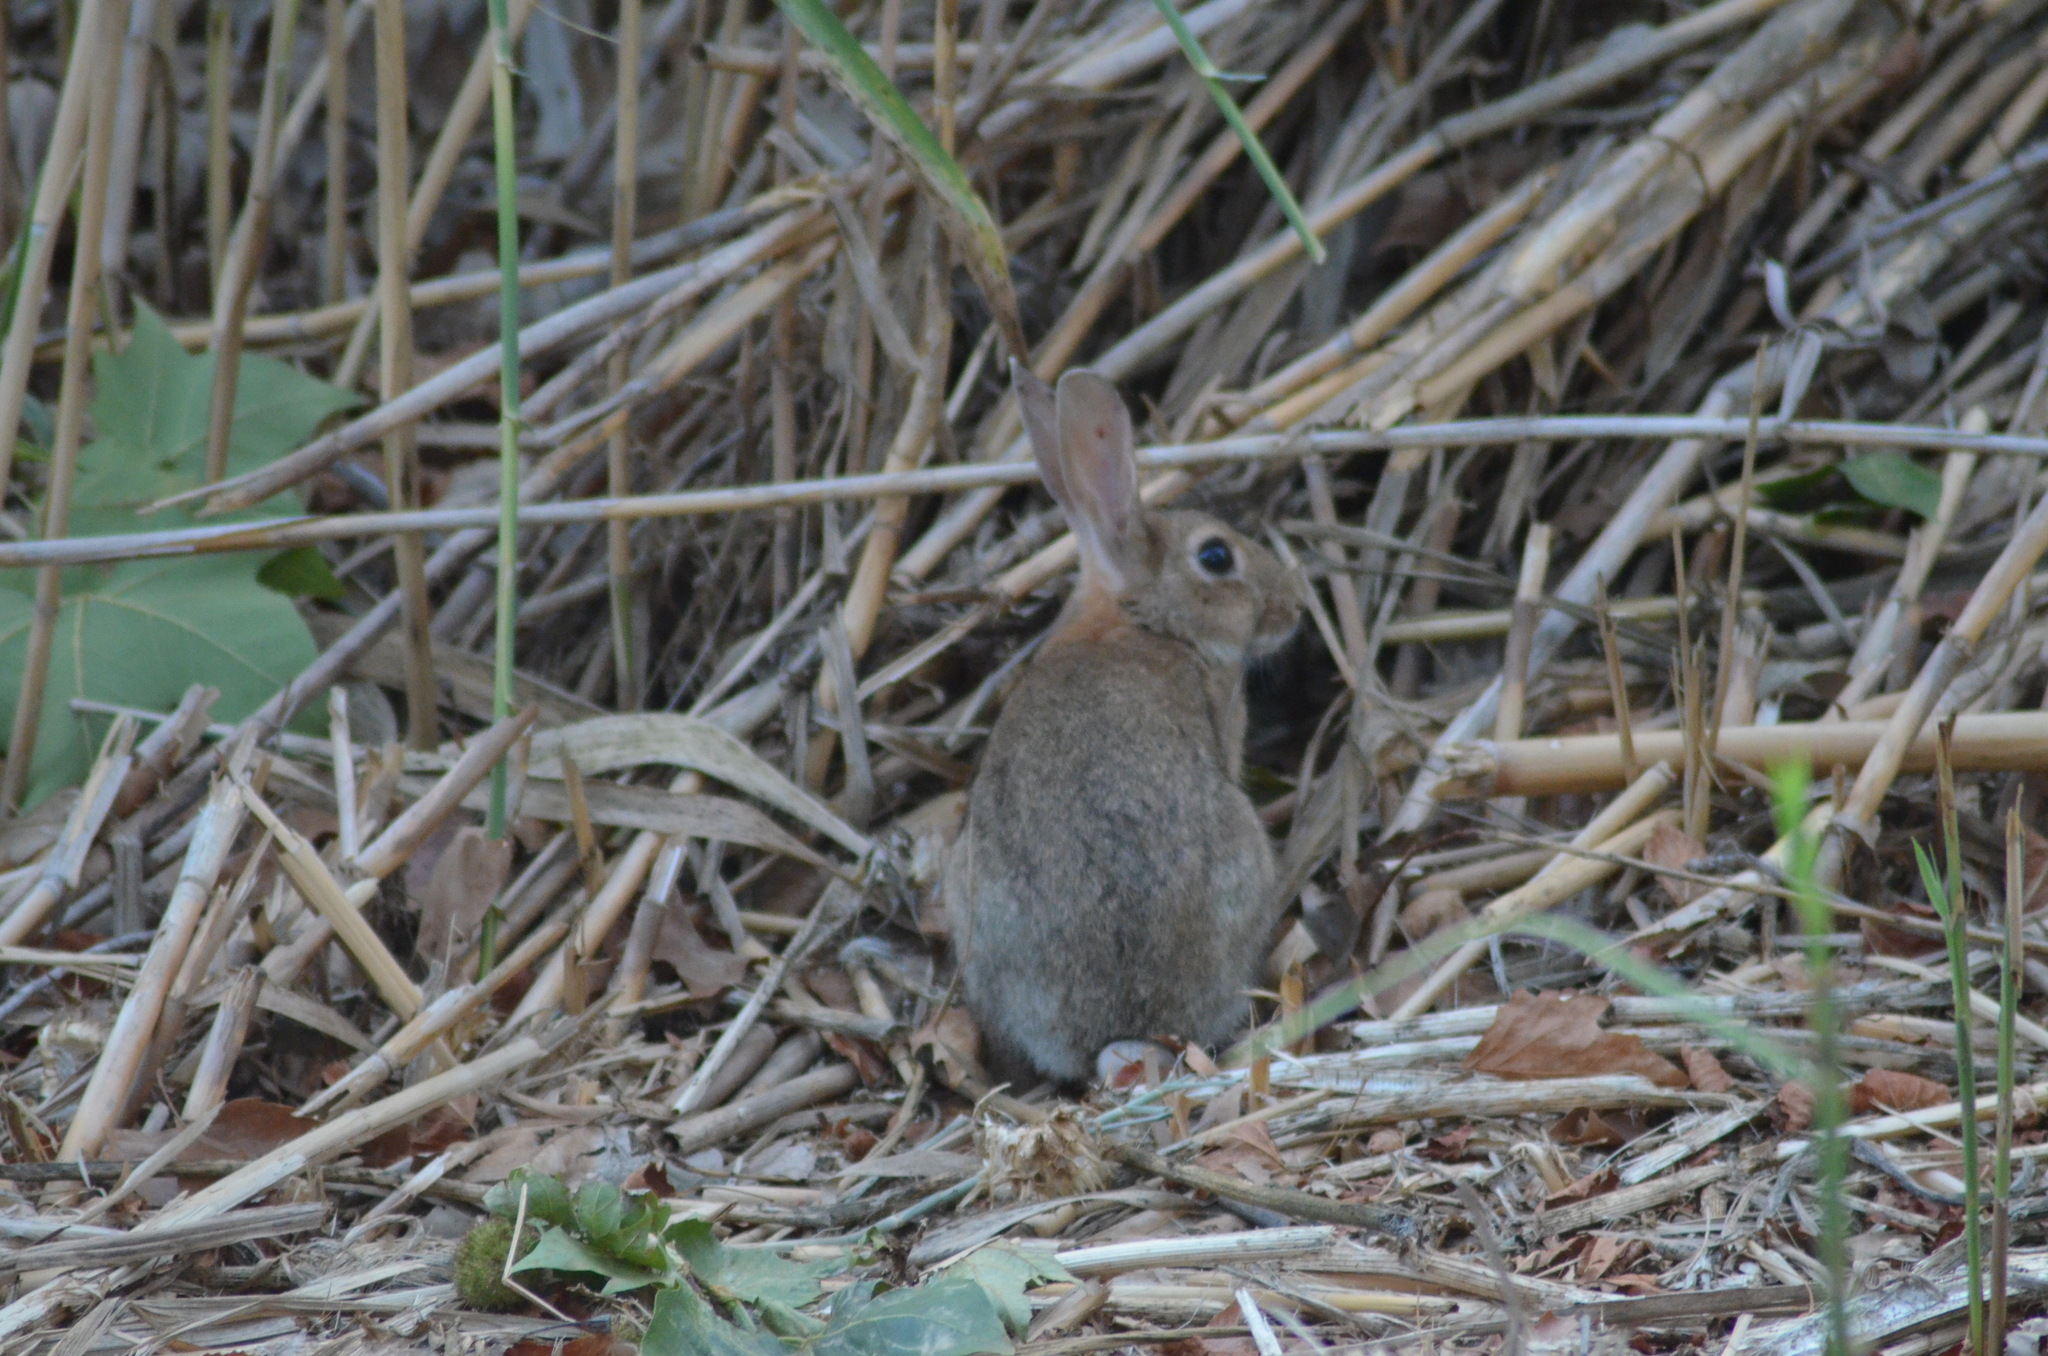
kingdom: Animalia
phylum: Chordata
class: Mammalia
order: Lagomorpha
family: Leporidae
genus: Oryctolagus
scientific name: Oryctolagus cuniculus
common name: European rabbit
